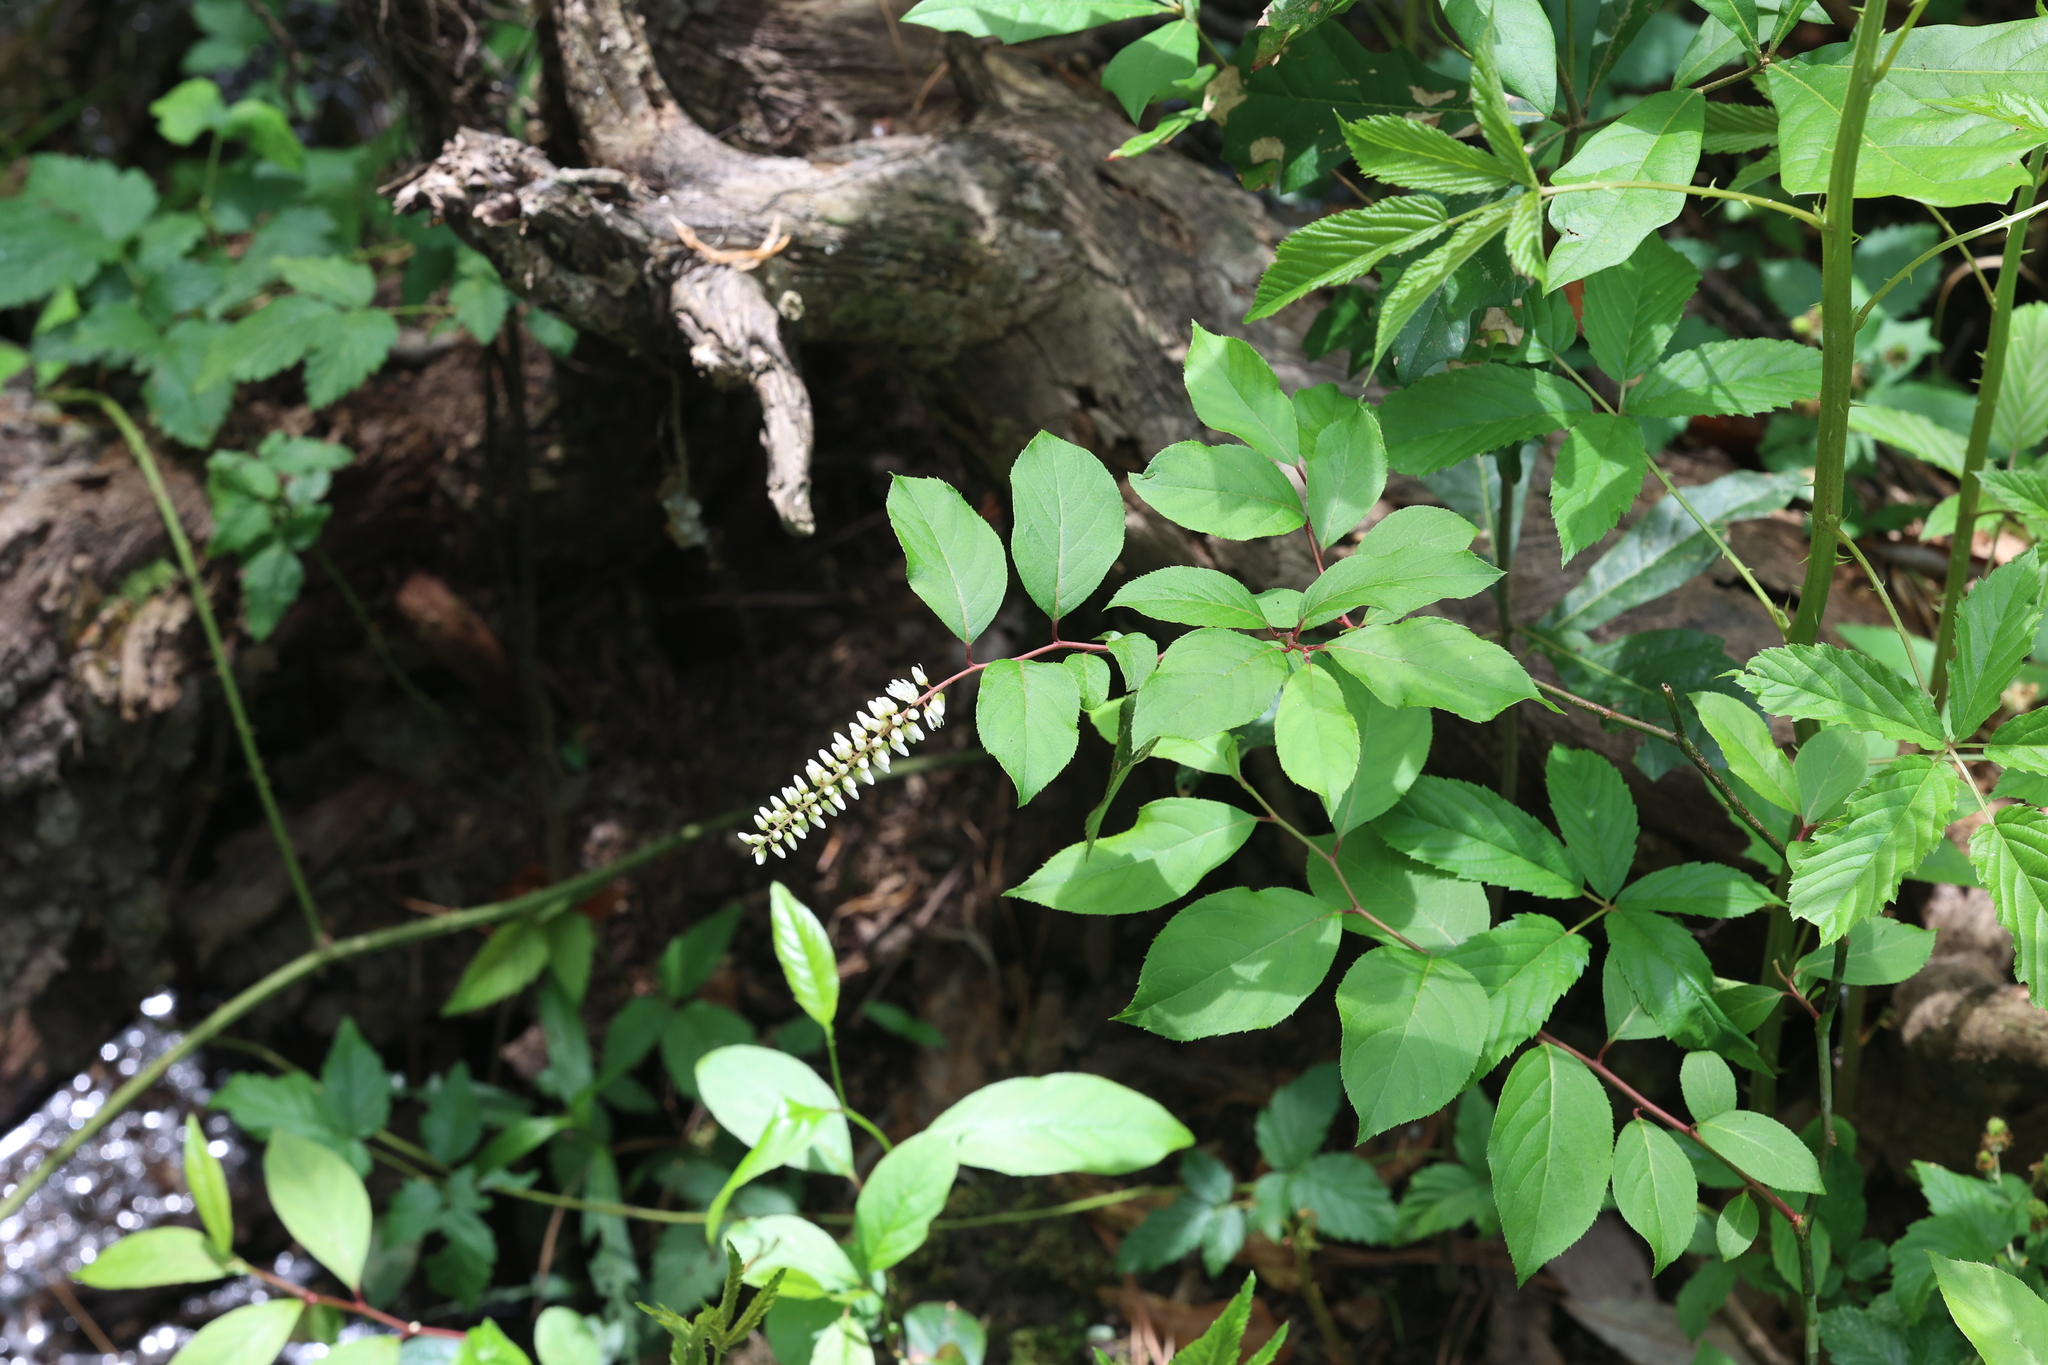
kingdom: Plantae
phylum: Tracheophyta
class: Magnoliopsida
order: Saxifragales
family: Iteaceae
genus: Itea
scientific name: Itea virginica
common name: Sweetspire
